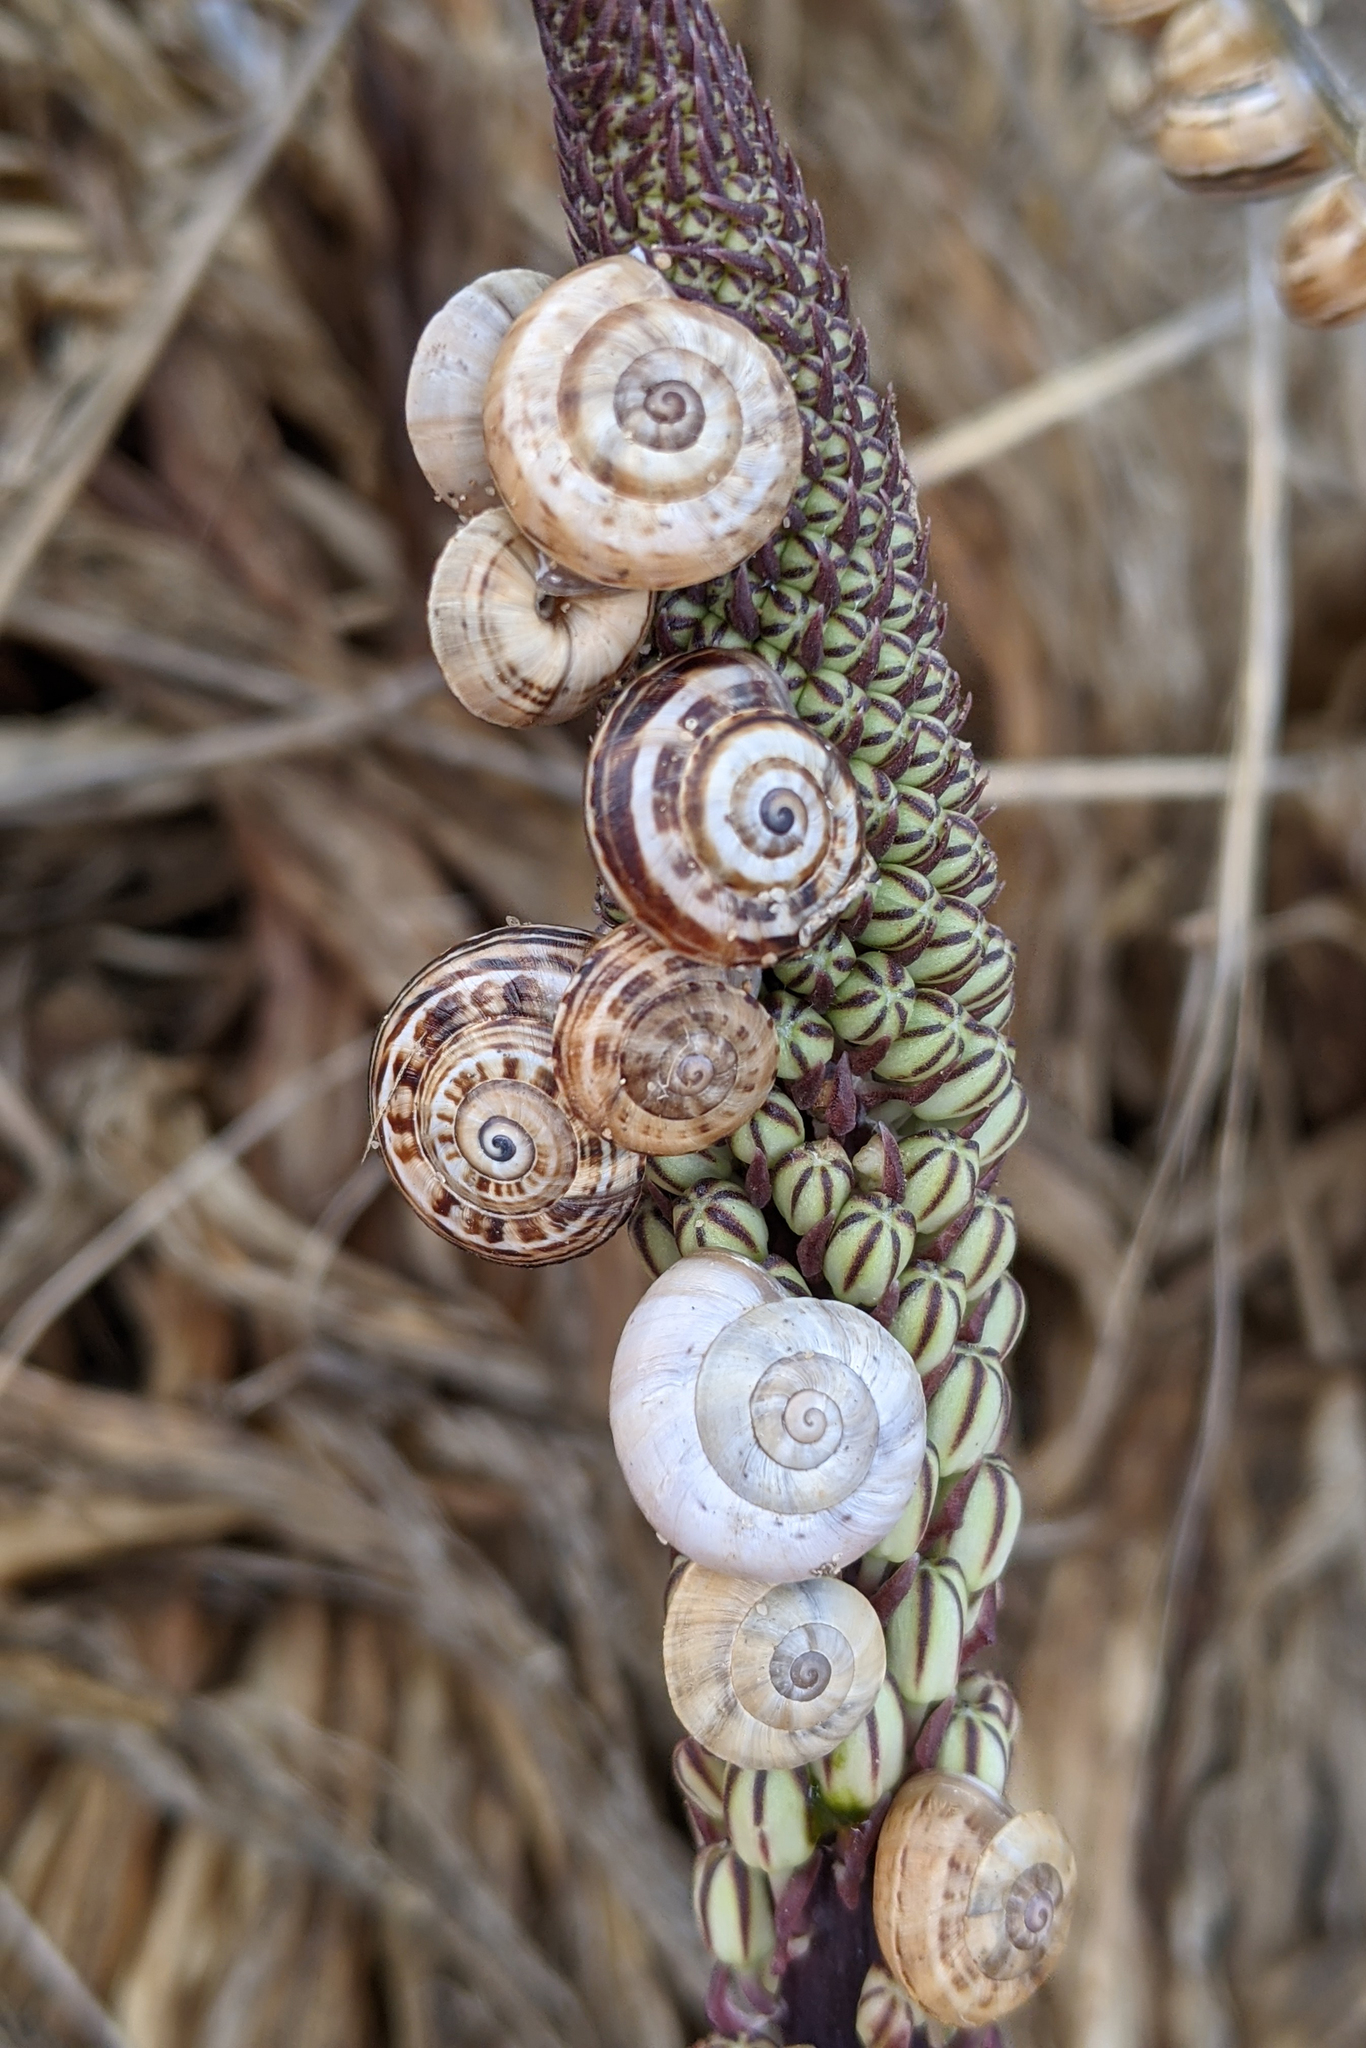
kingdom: Animalia
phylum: Mollusca
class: Gastropoda
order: Stylommatophora
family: Helicidae
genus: Theba
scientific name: Theba pisana
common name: White snail
